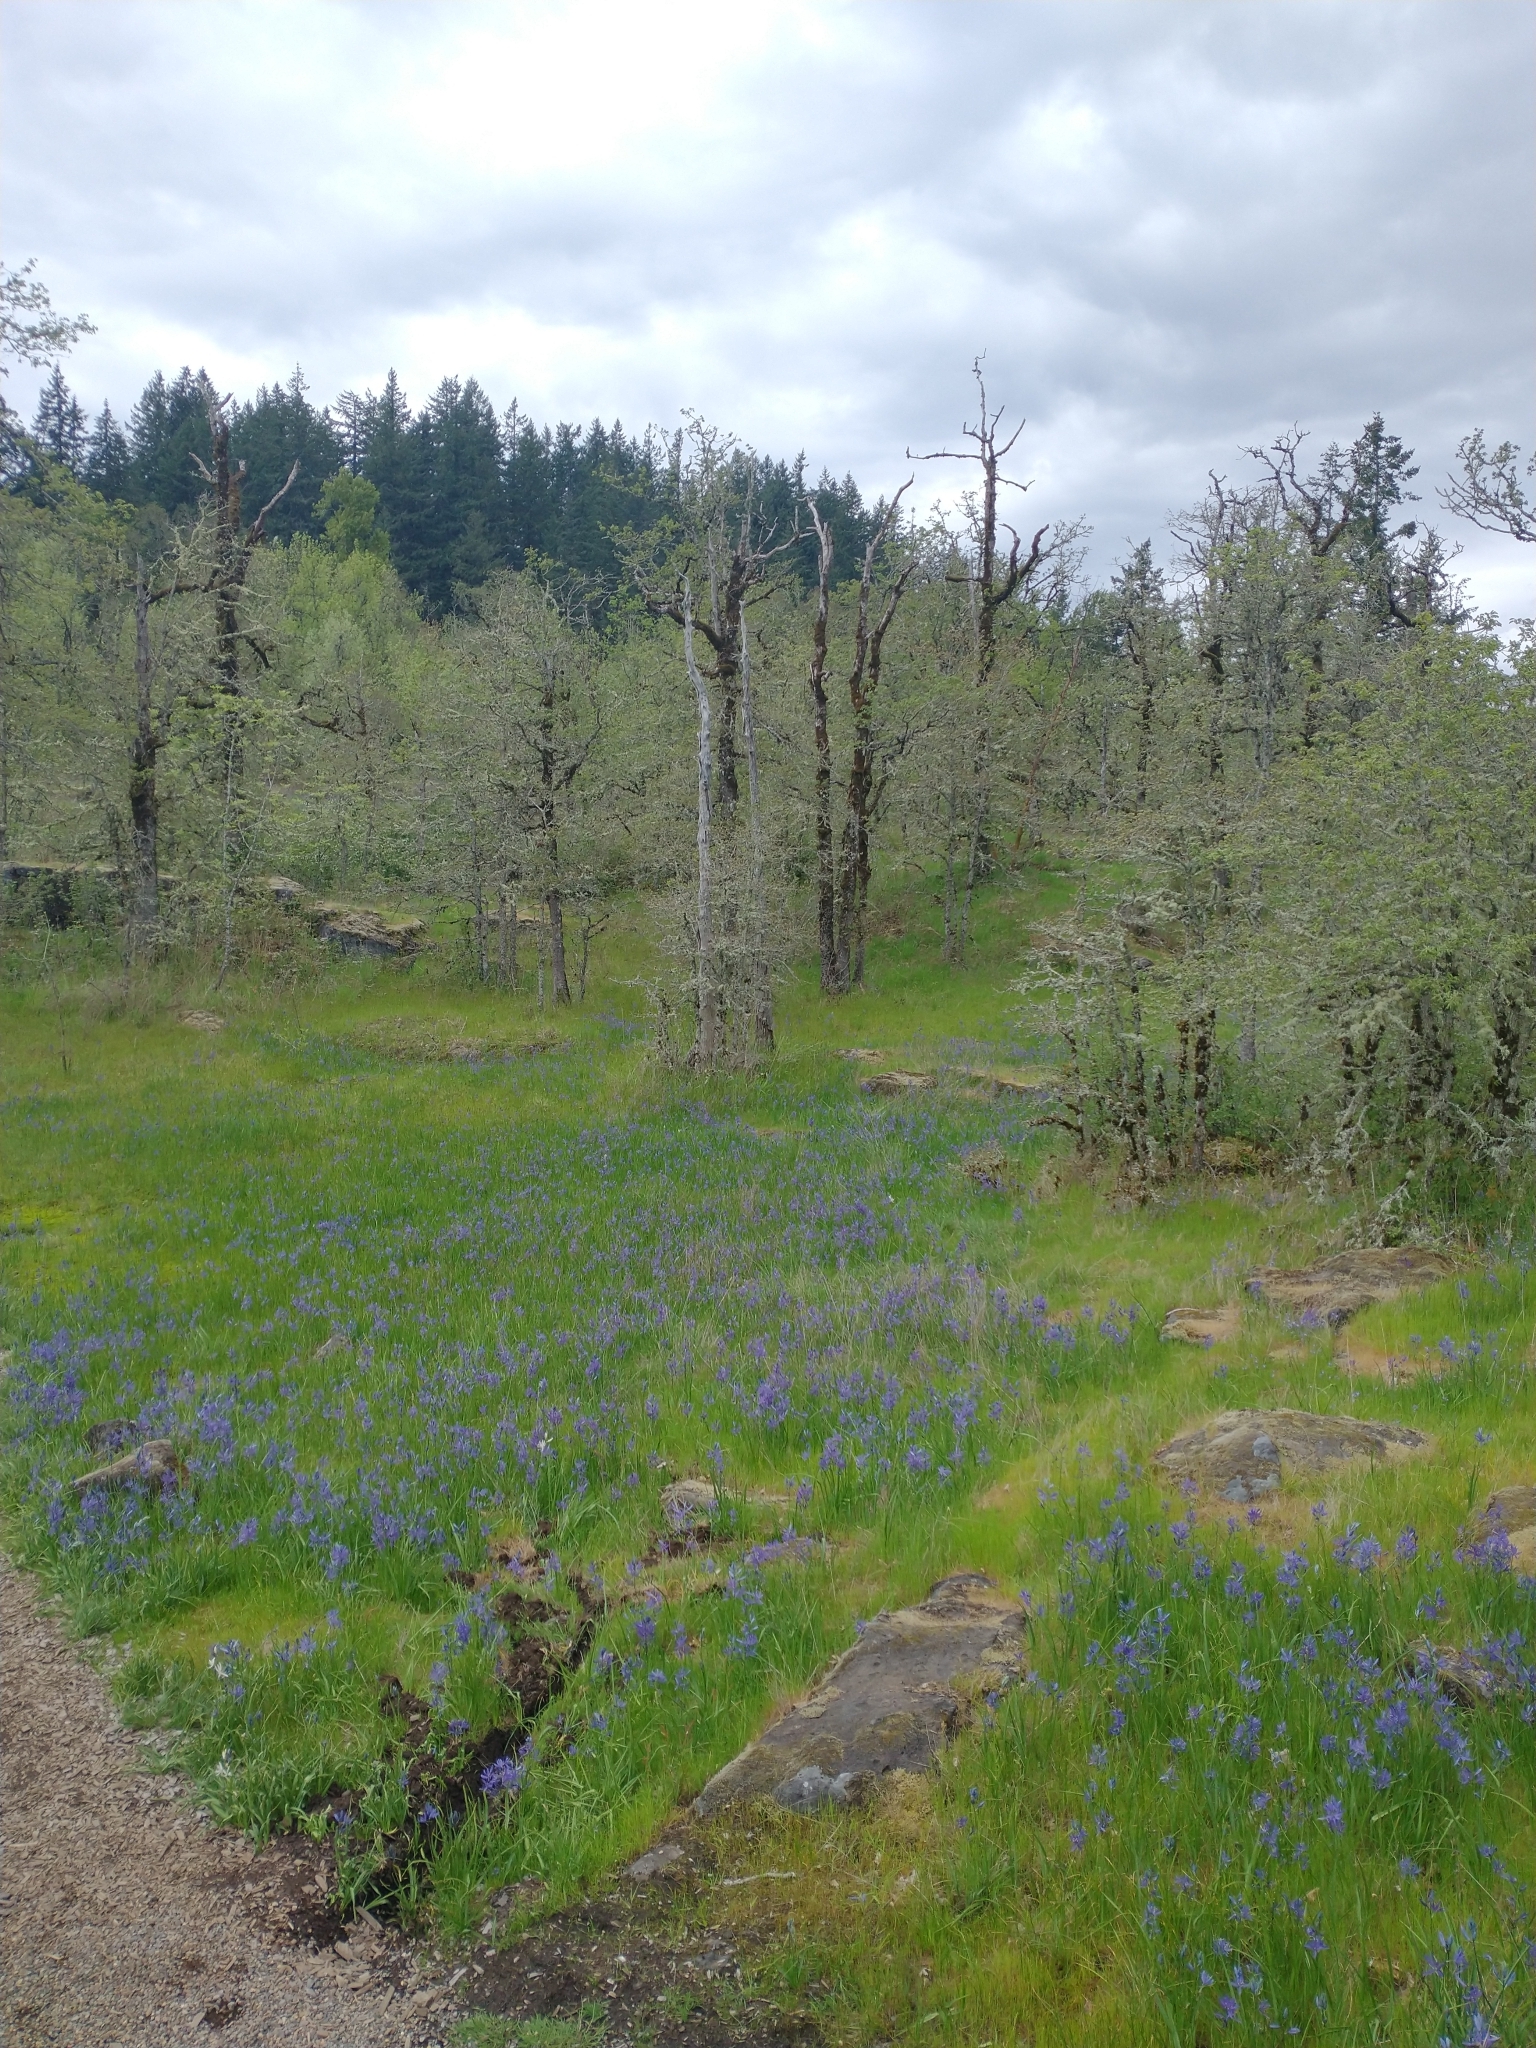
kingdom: Plantae
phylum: Tracheophyta
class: Liliopsida
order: Asparagales
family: Asparagaceae
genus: Camassia
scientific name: Camassia
